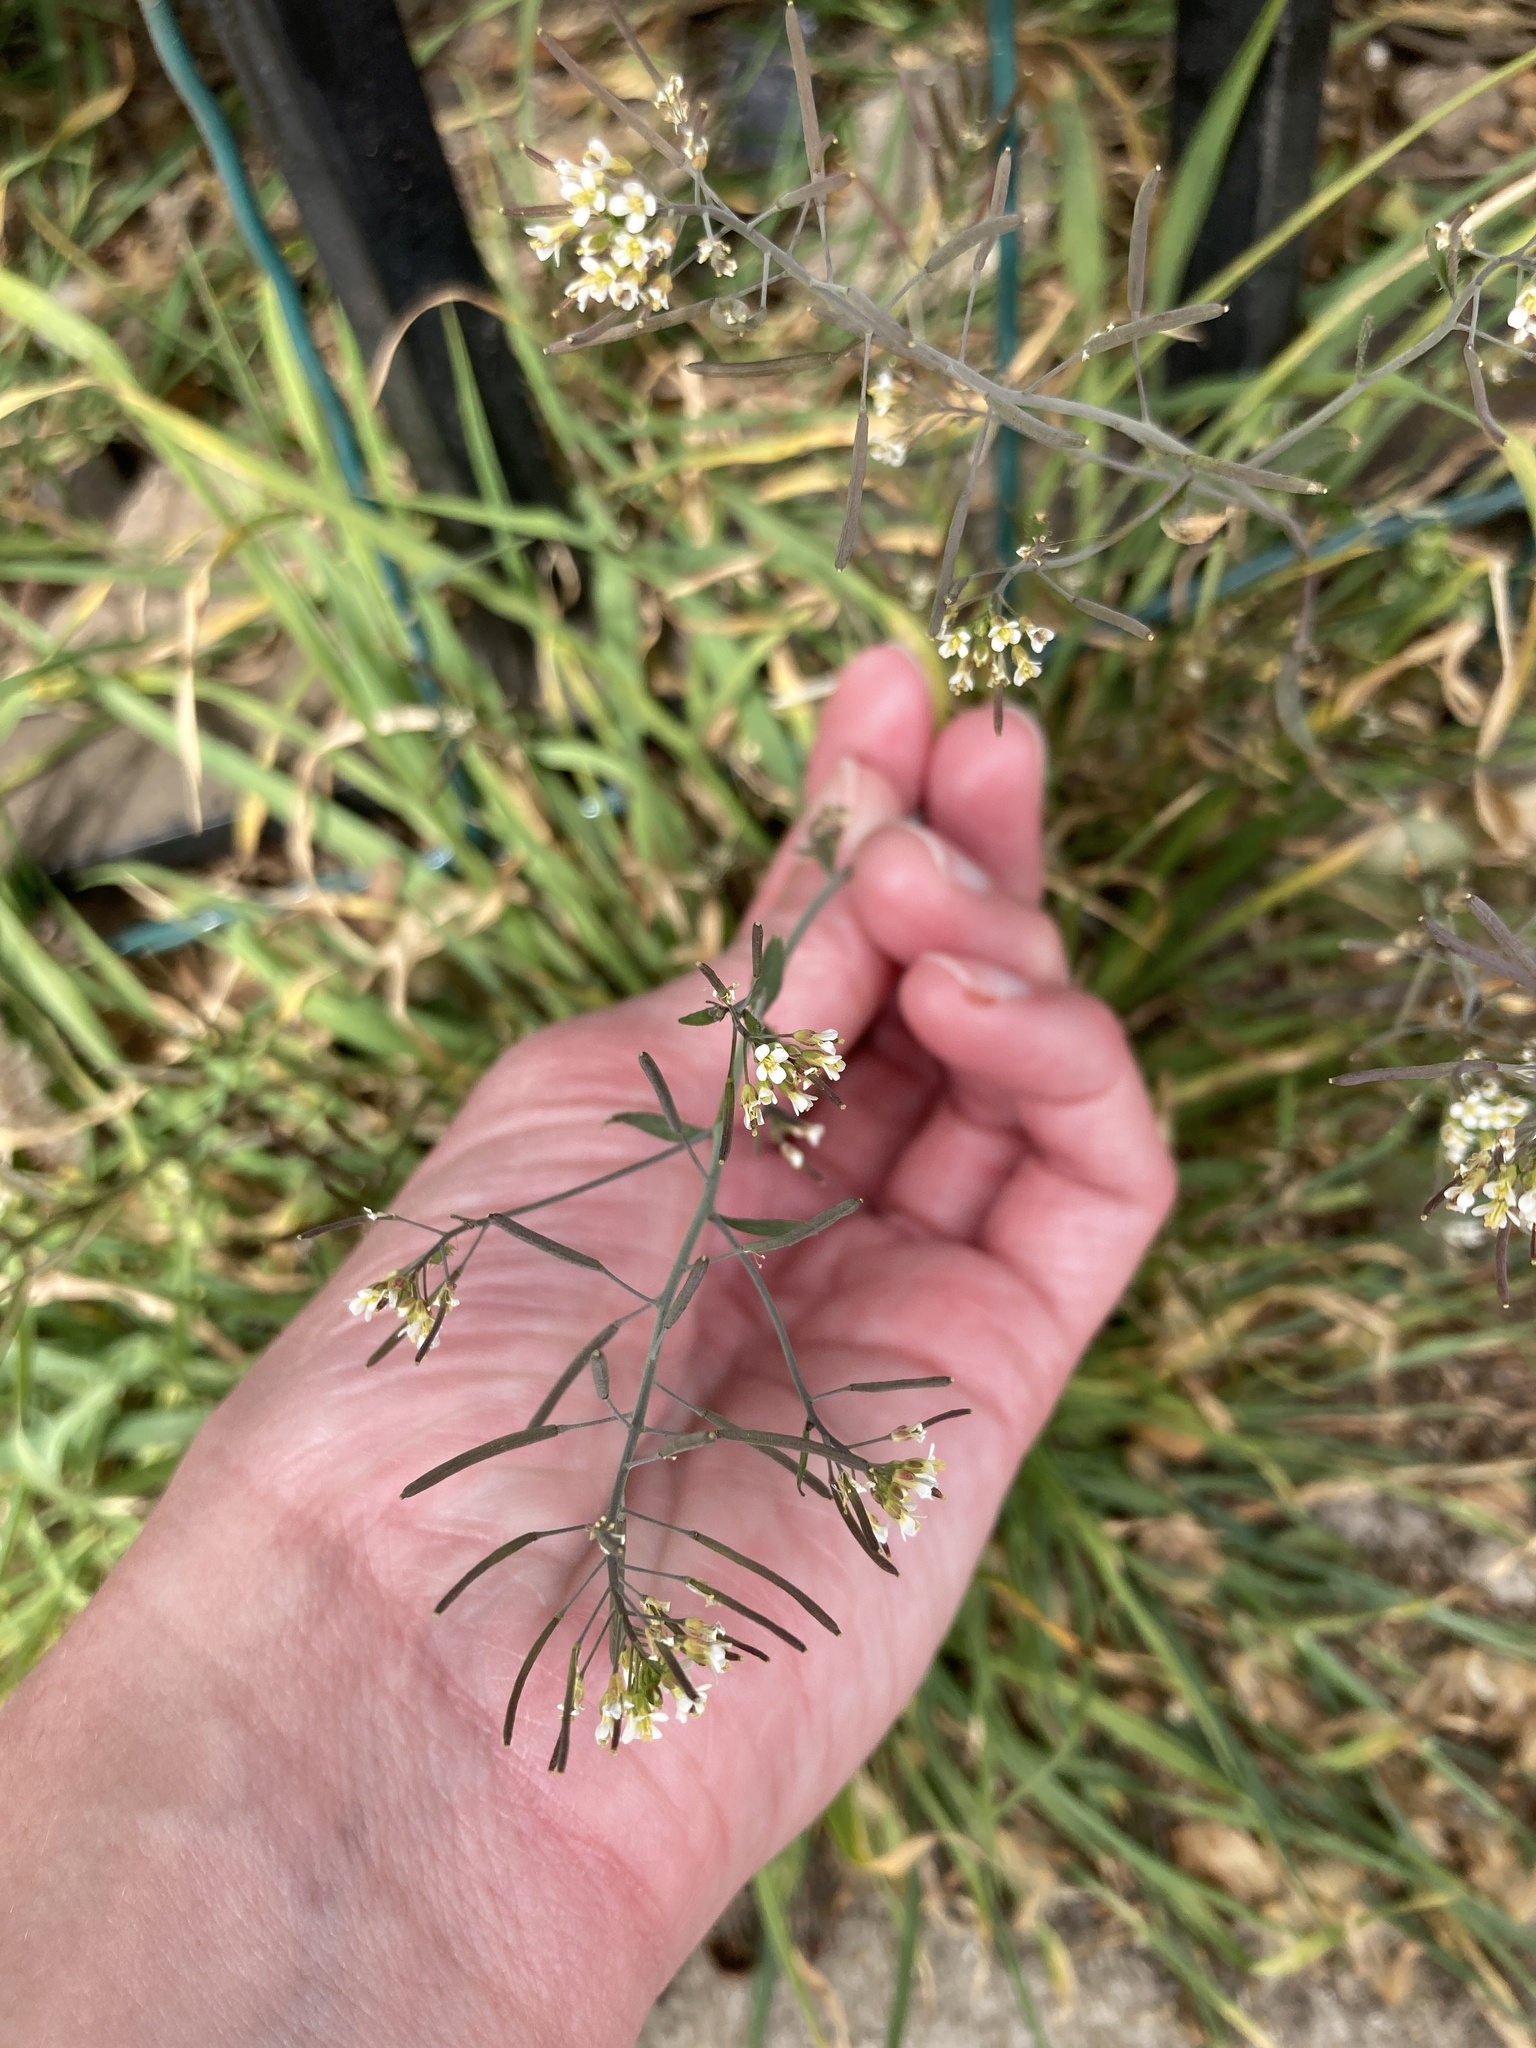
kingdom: Plantae
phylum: Tracheophyta
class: Magnoliopsida
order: Brassicales
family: Brassicaceae
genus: Arabidopsis
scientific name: Arabidopsis thaliana
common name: Thale cress
